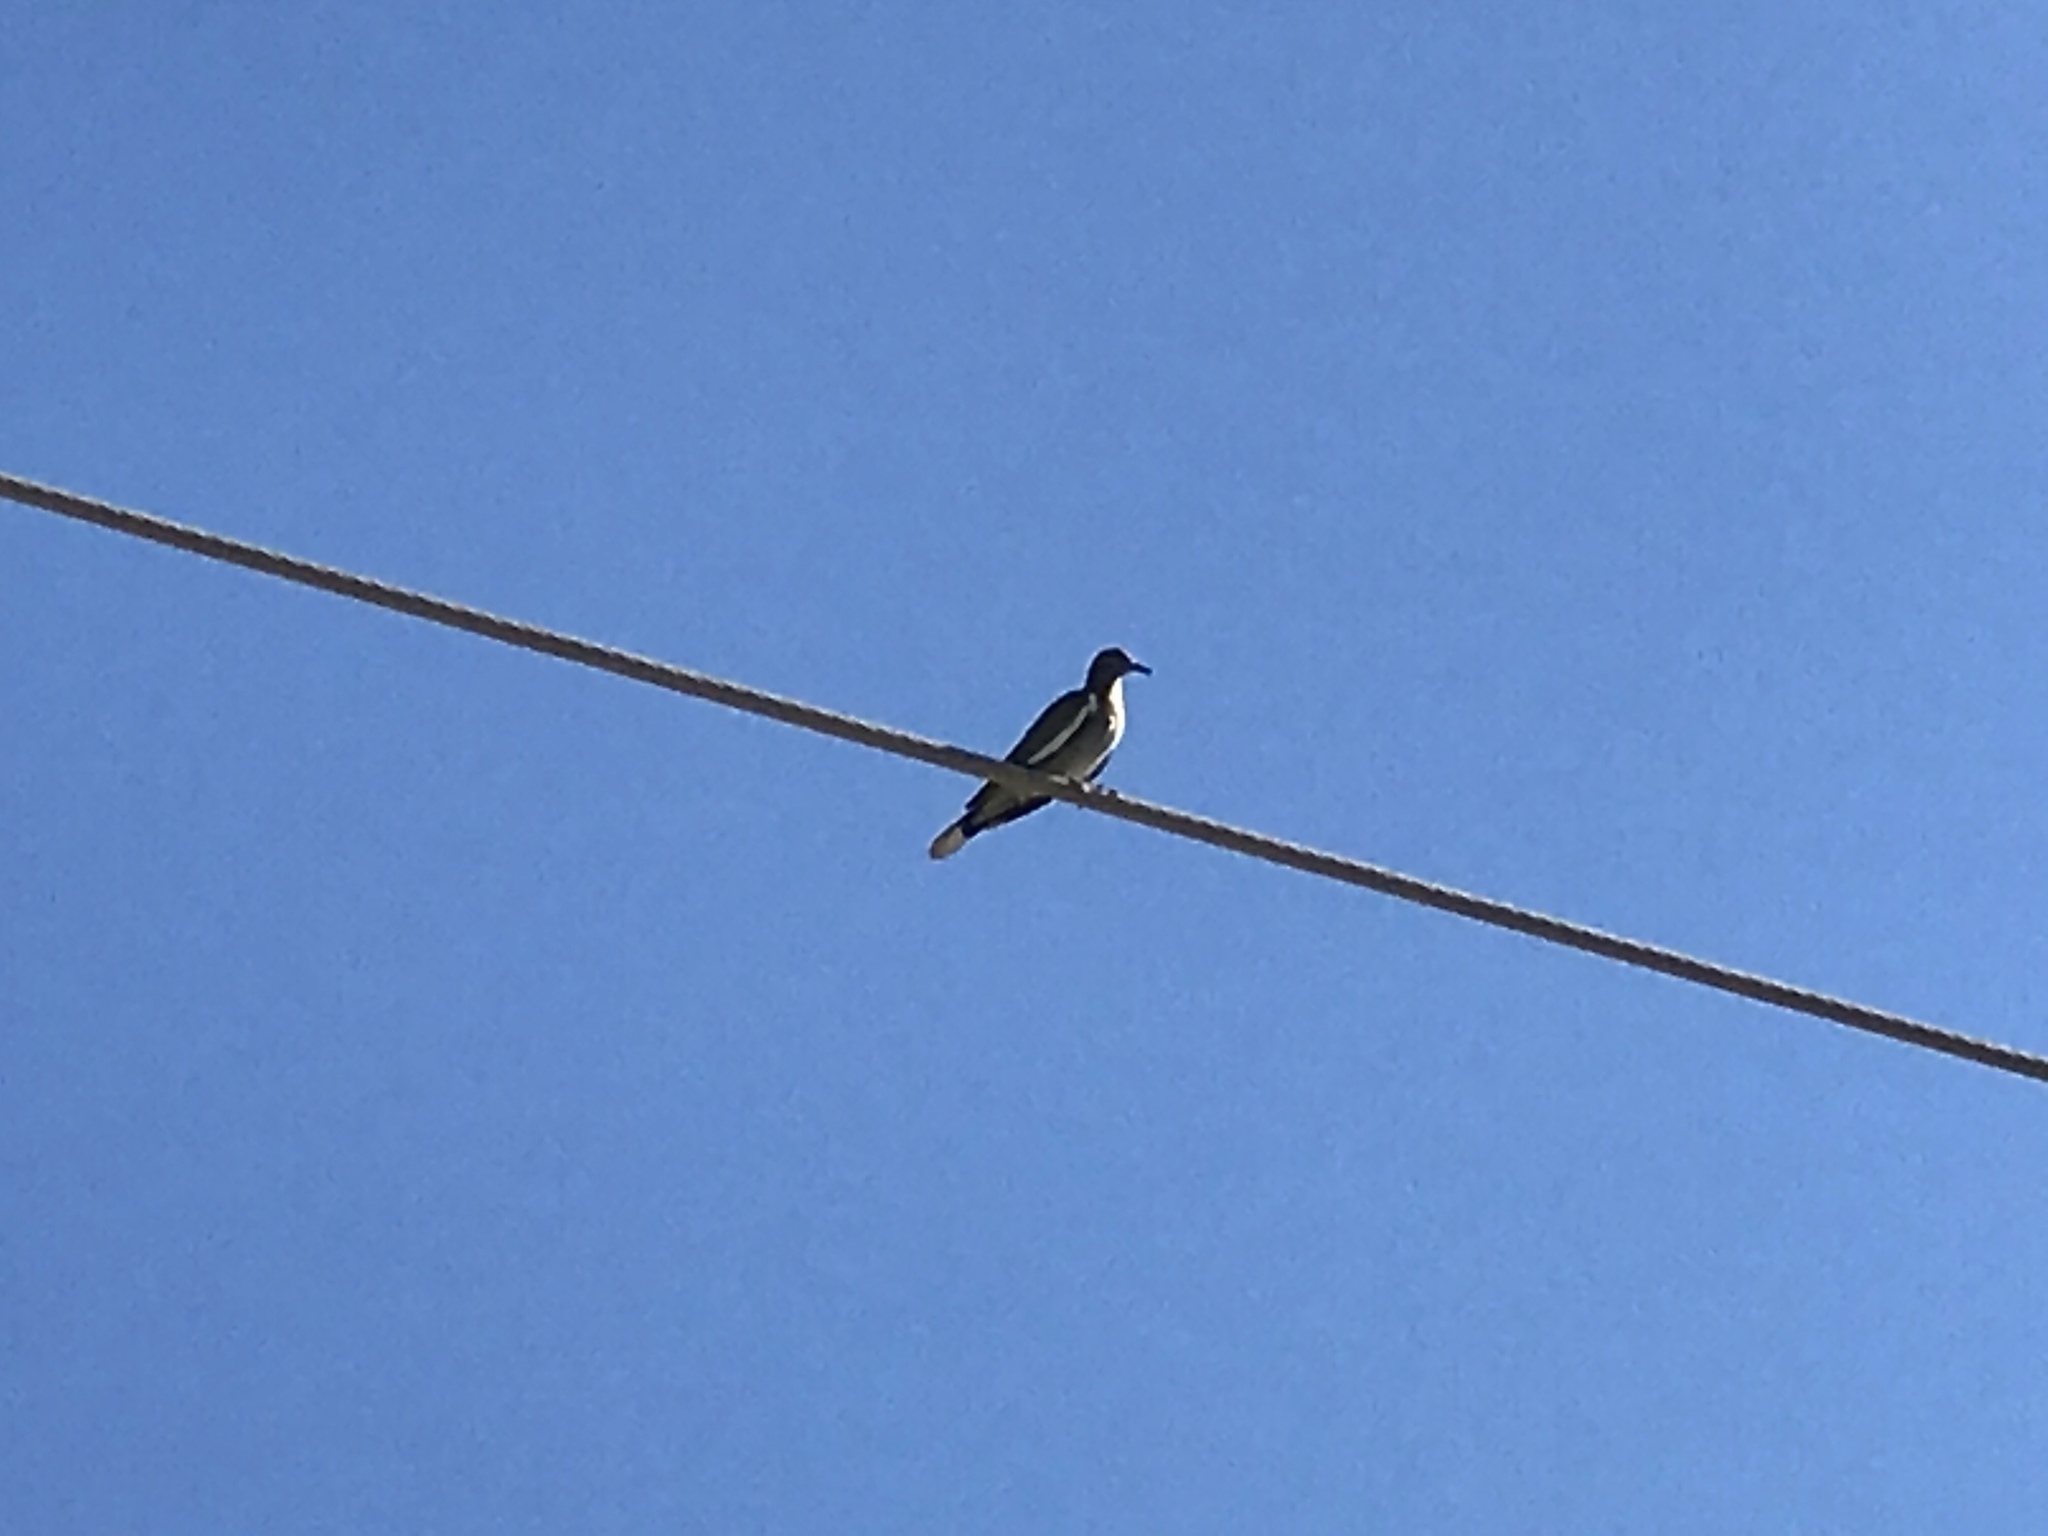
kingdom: Animalia
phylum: Chordata
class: Aves
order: Columbiformes
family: Columbidae
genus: Zenaida
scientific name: Zenaida asiatica
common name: White-winged dove
